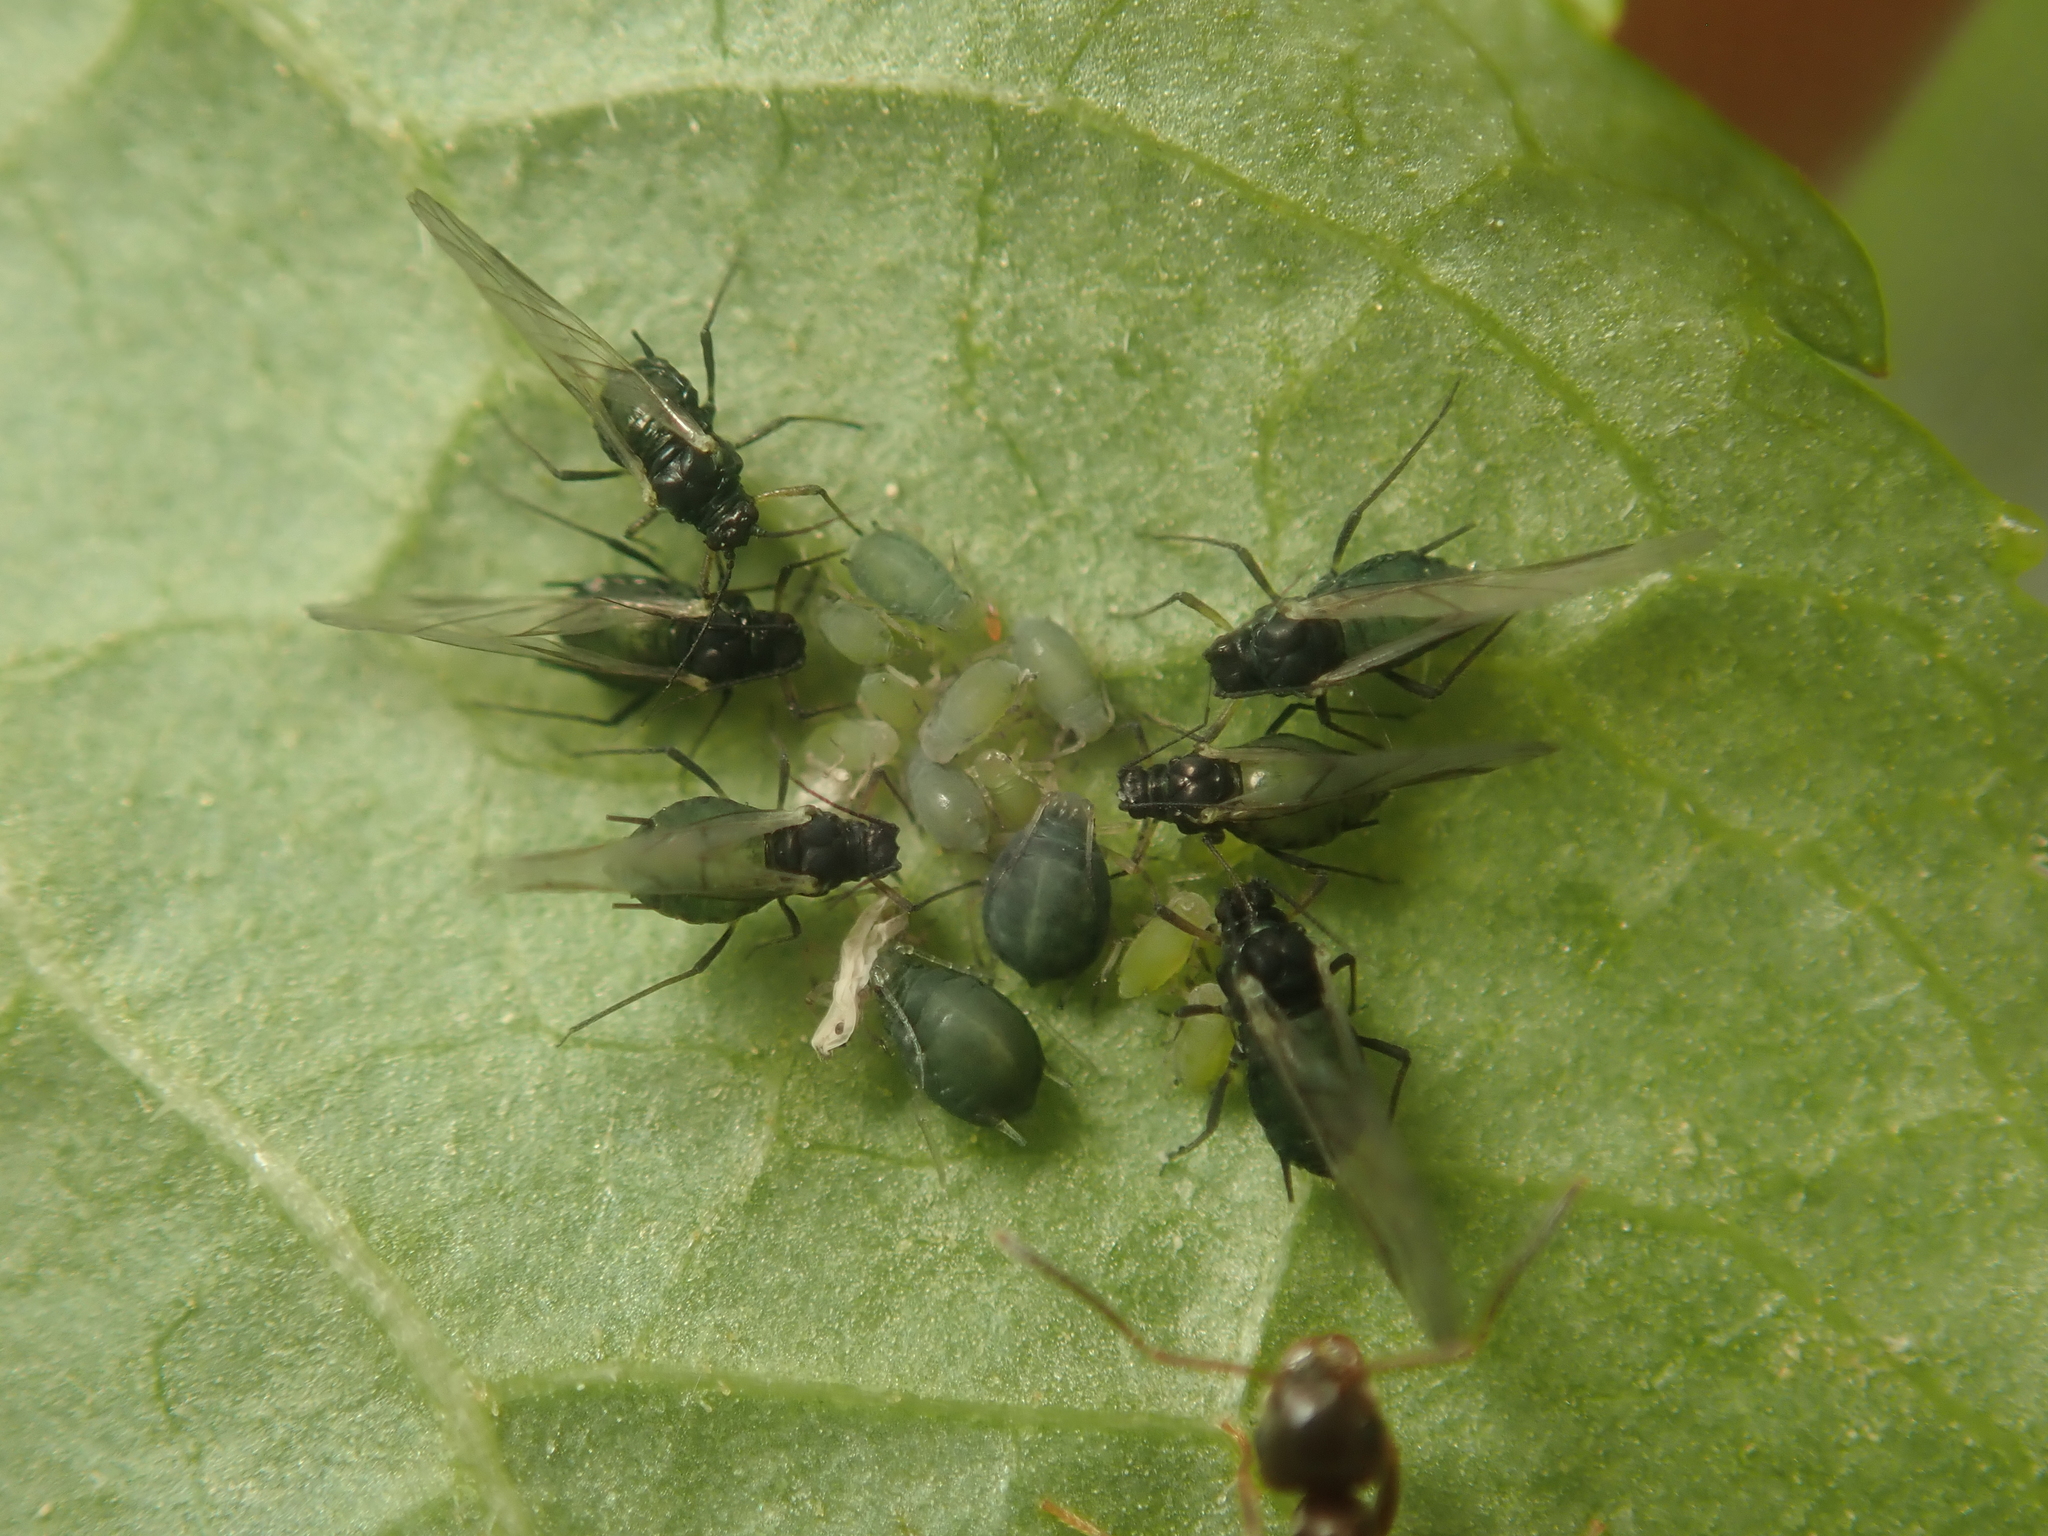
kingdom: Animalia
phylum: Arthropoda
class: Insecta
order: Hemiptera
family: Aphididae
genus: Aphis
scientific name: Aphis sambuci
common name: Elder aphid
